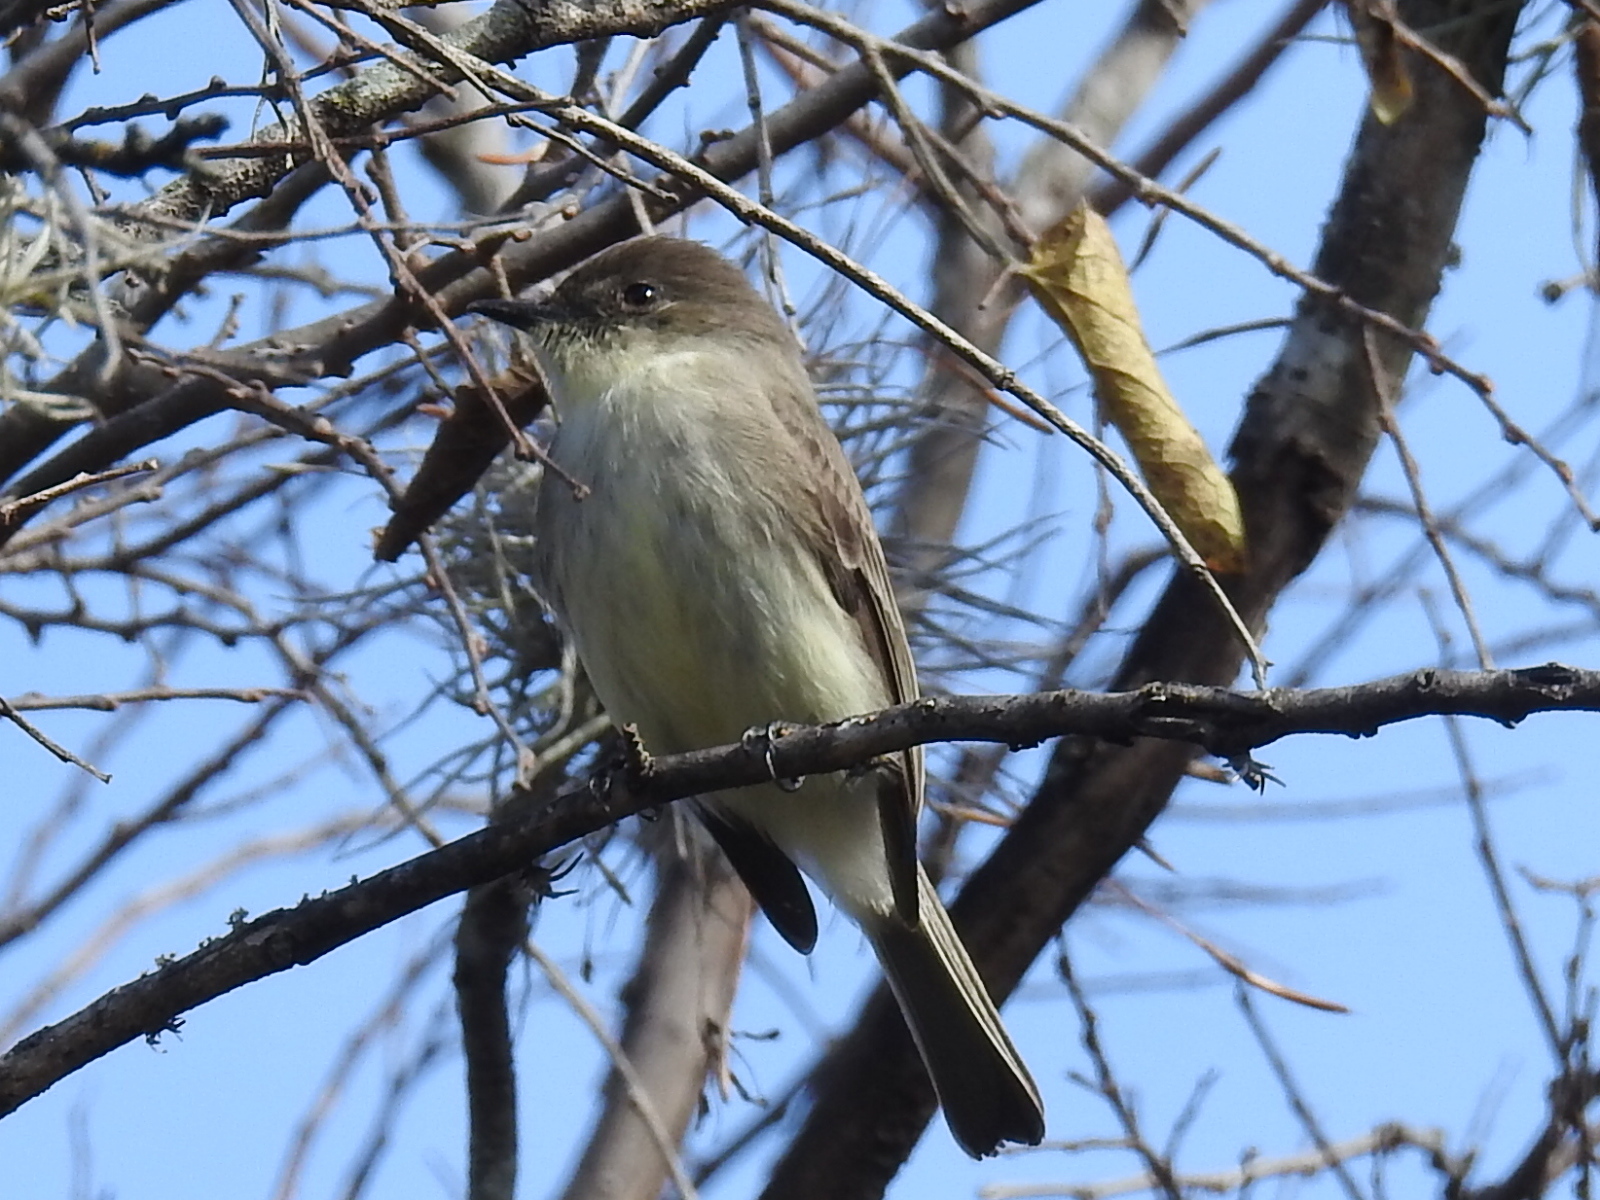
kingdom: Animalia
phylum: Chordata
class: Aves
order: Passeriformes
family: Tyrannidae
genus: Sayornis
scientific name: Sayornis phoebe
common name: Eastern phoebe
